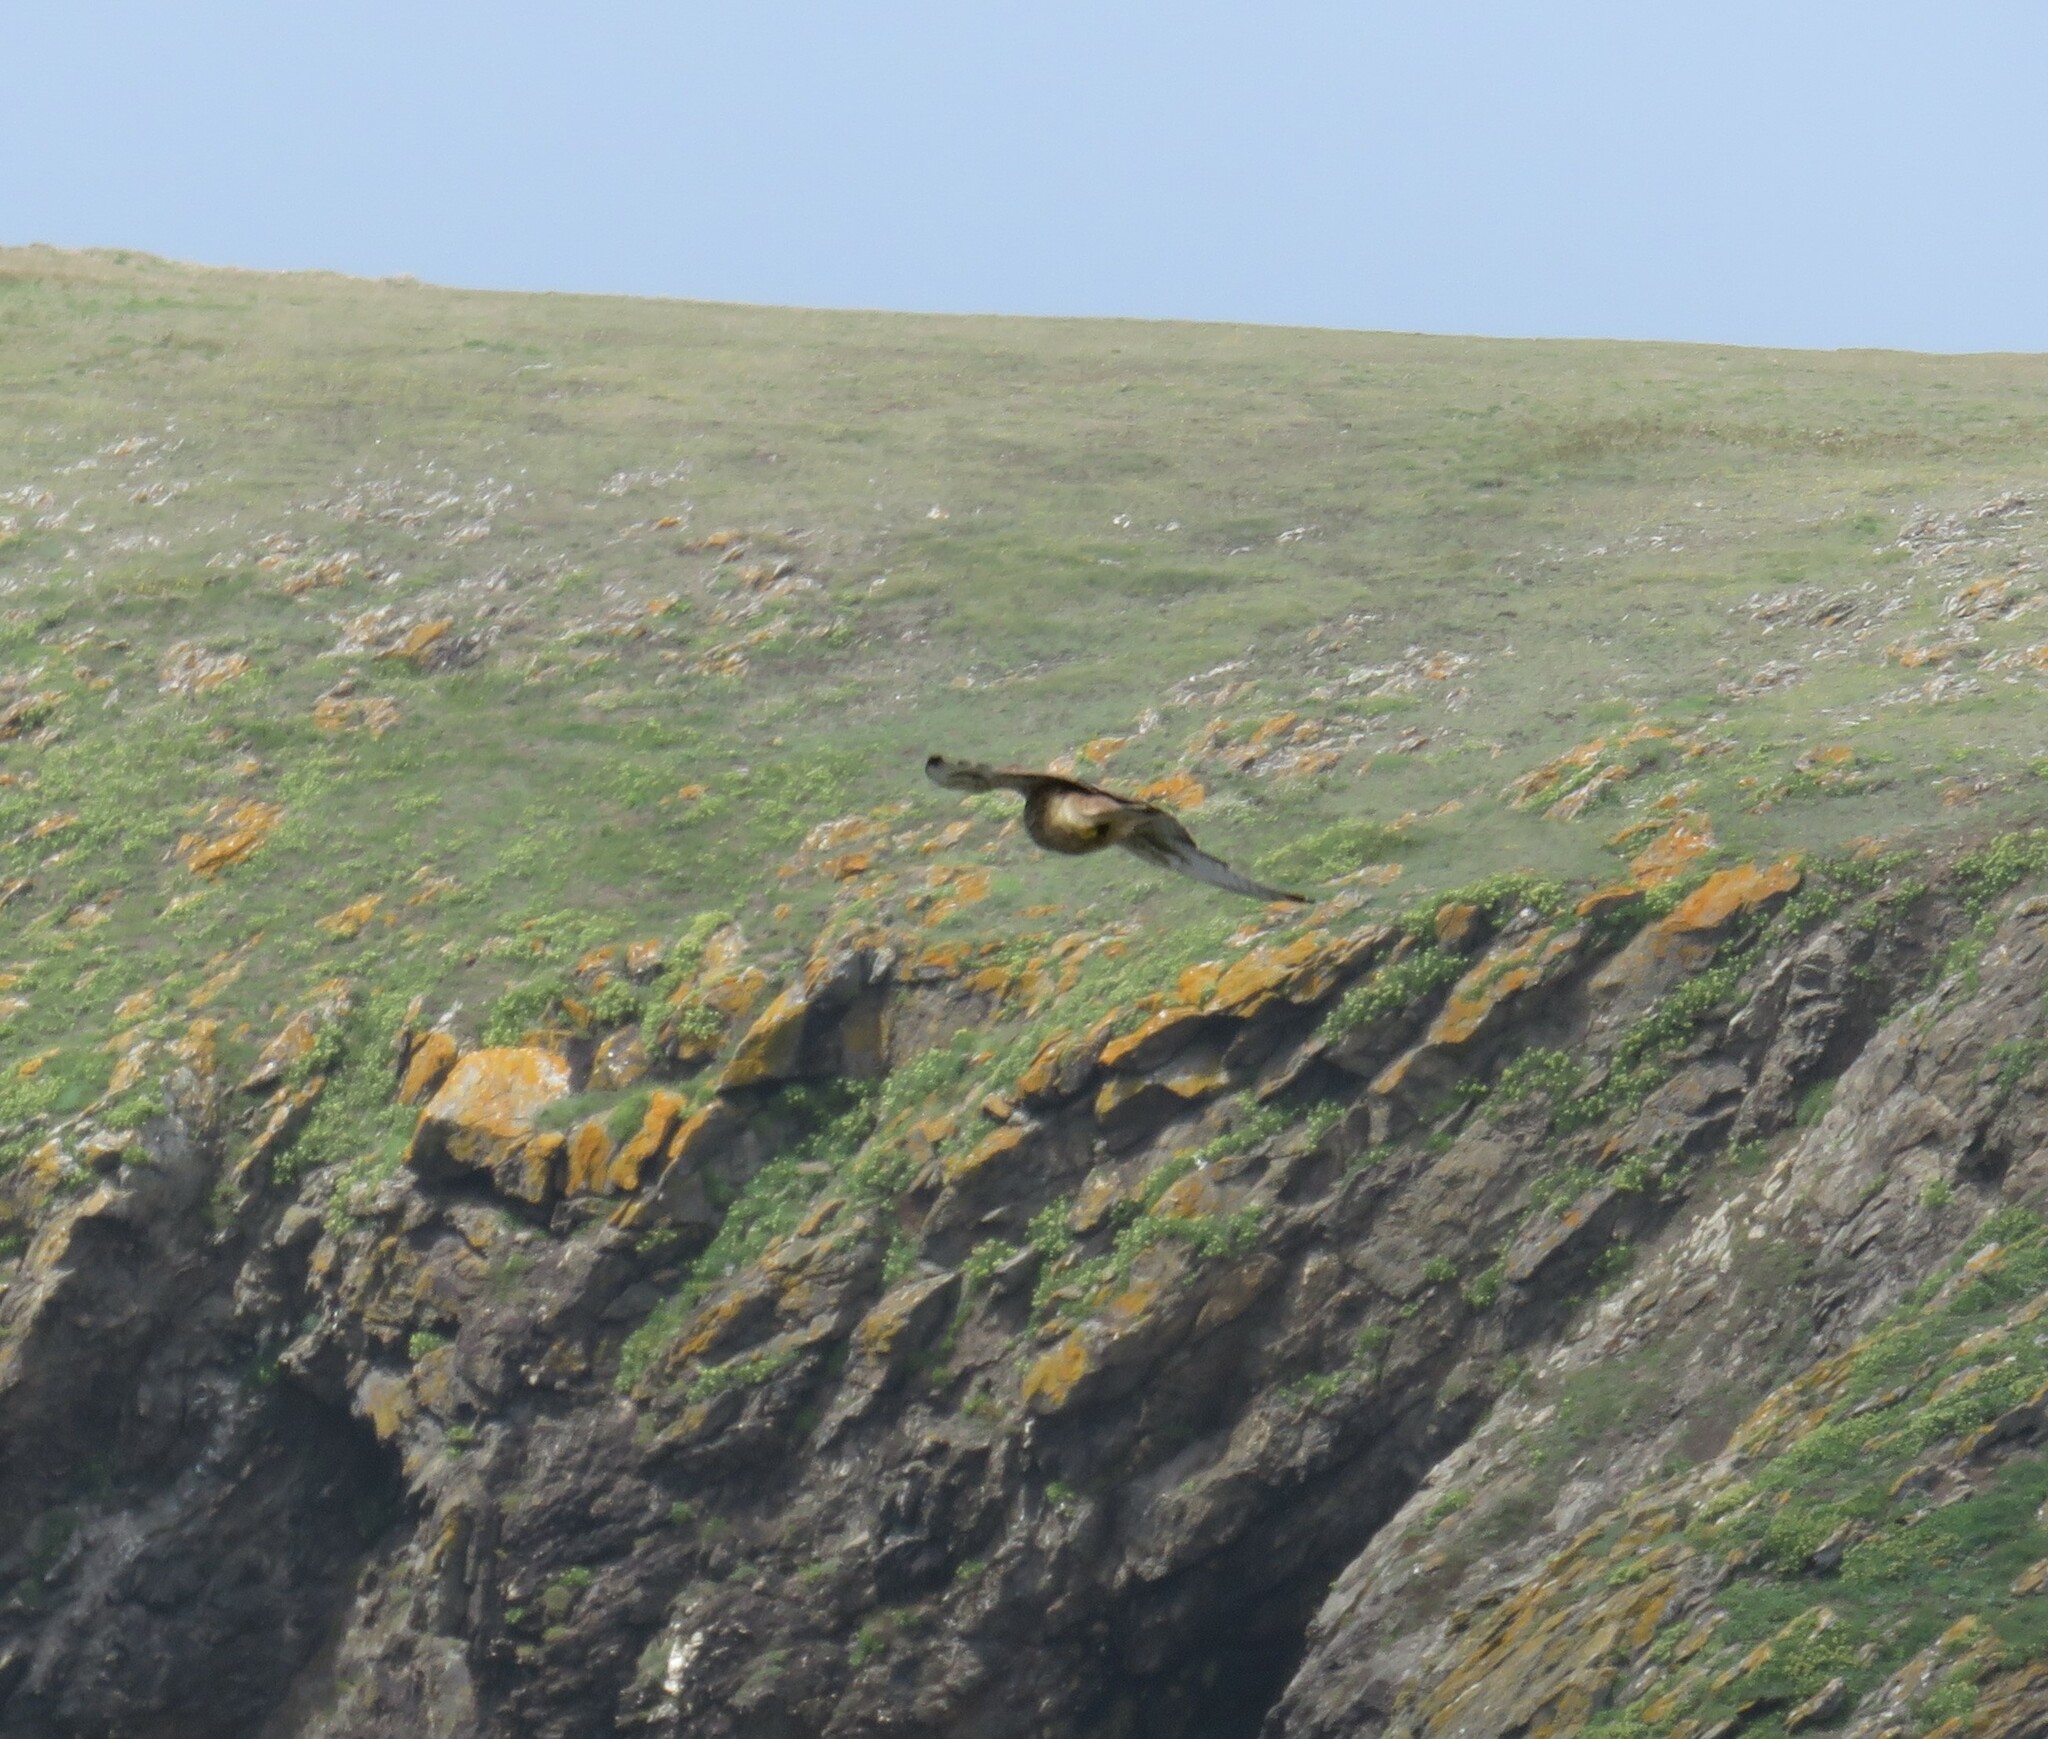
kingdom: Animalia
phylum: Chordata
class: Aves
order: Falconiformes
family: Falconidae
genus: Falco
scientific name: Falco tinnunculus
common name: Common kestrel
